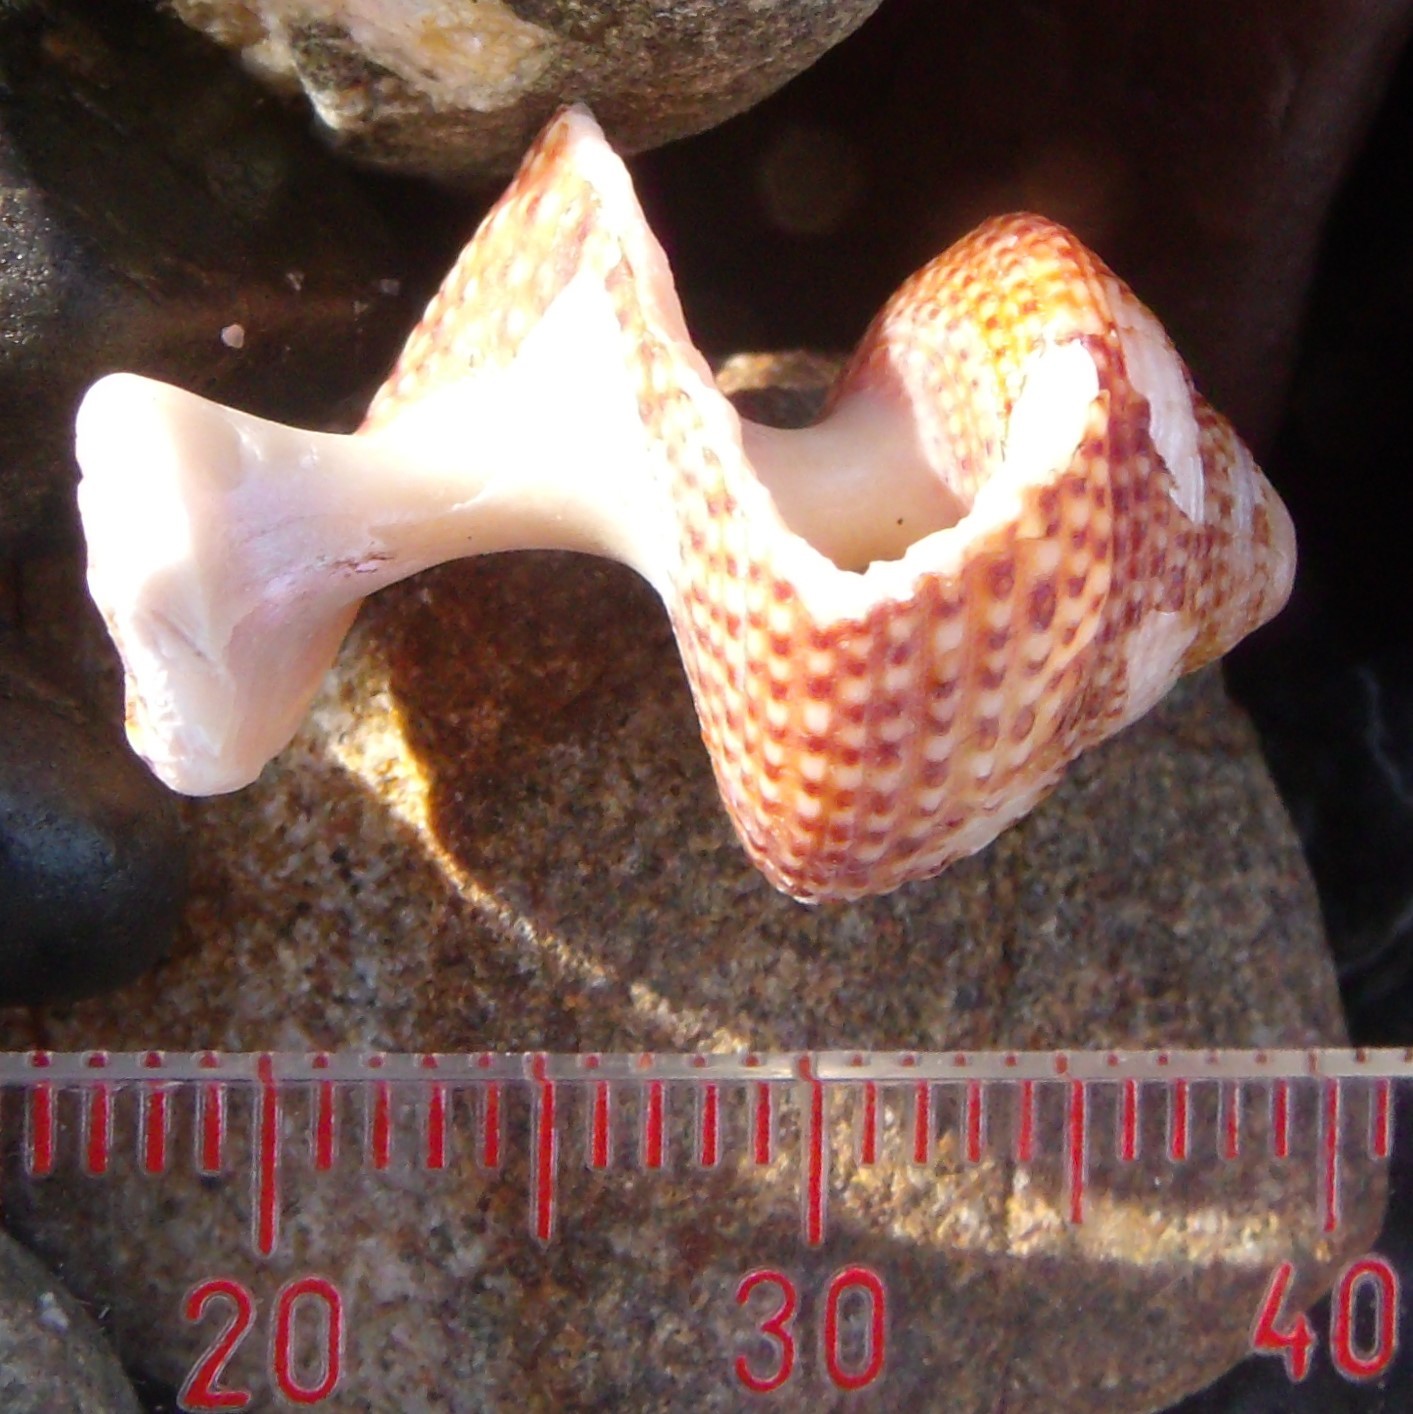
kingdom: Animalia
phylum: Mollusca
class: Gastropoda
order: Trochida
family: Calliostomatidae
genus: Maurea
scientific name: Maurea punctulata
